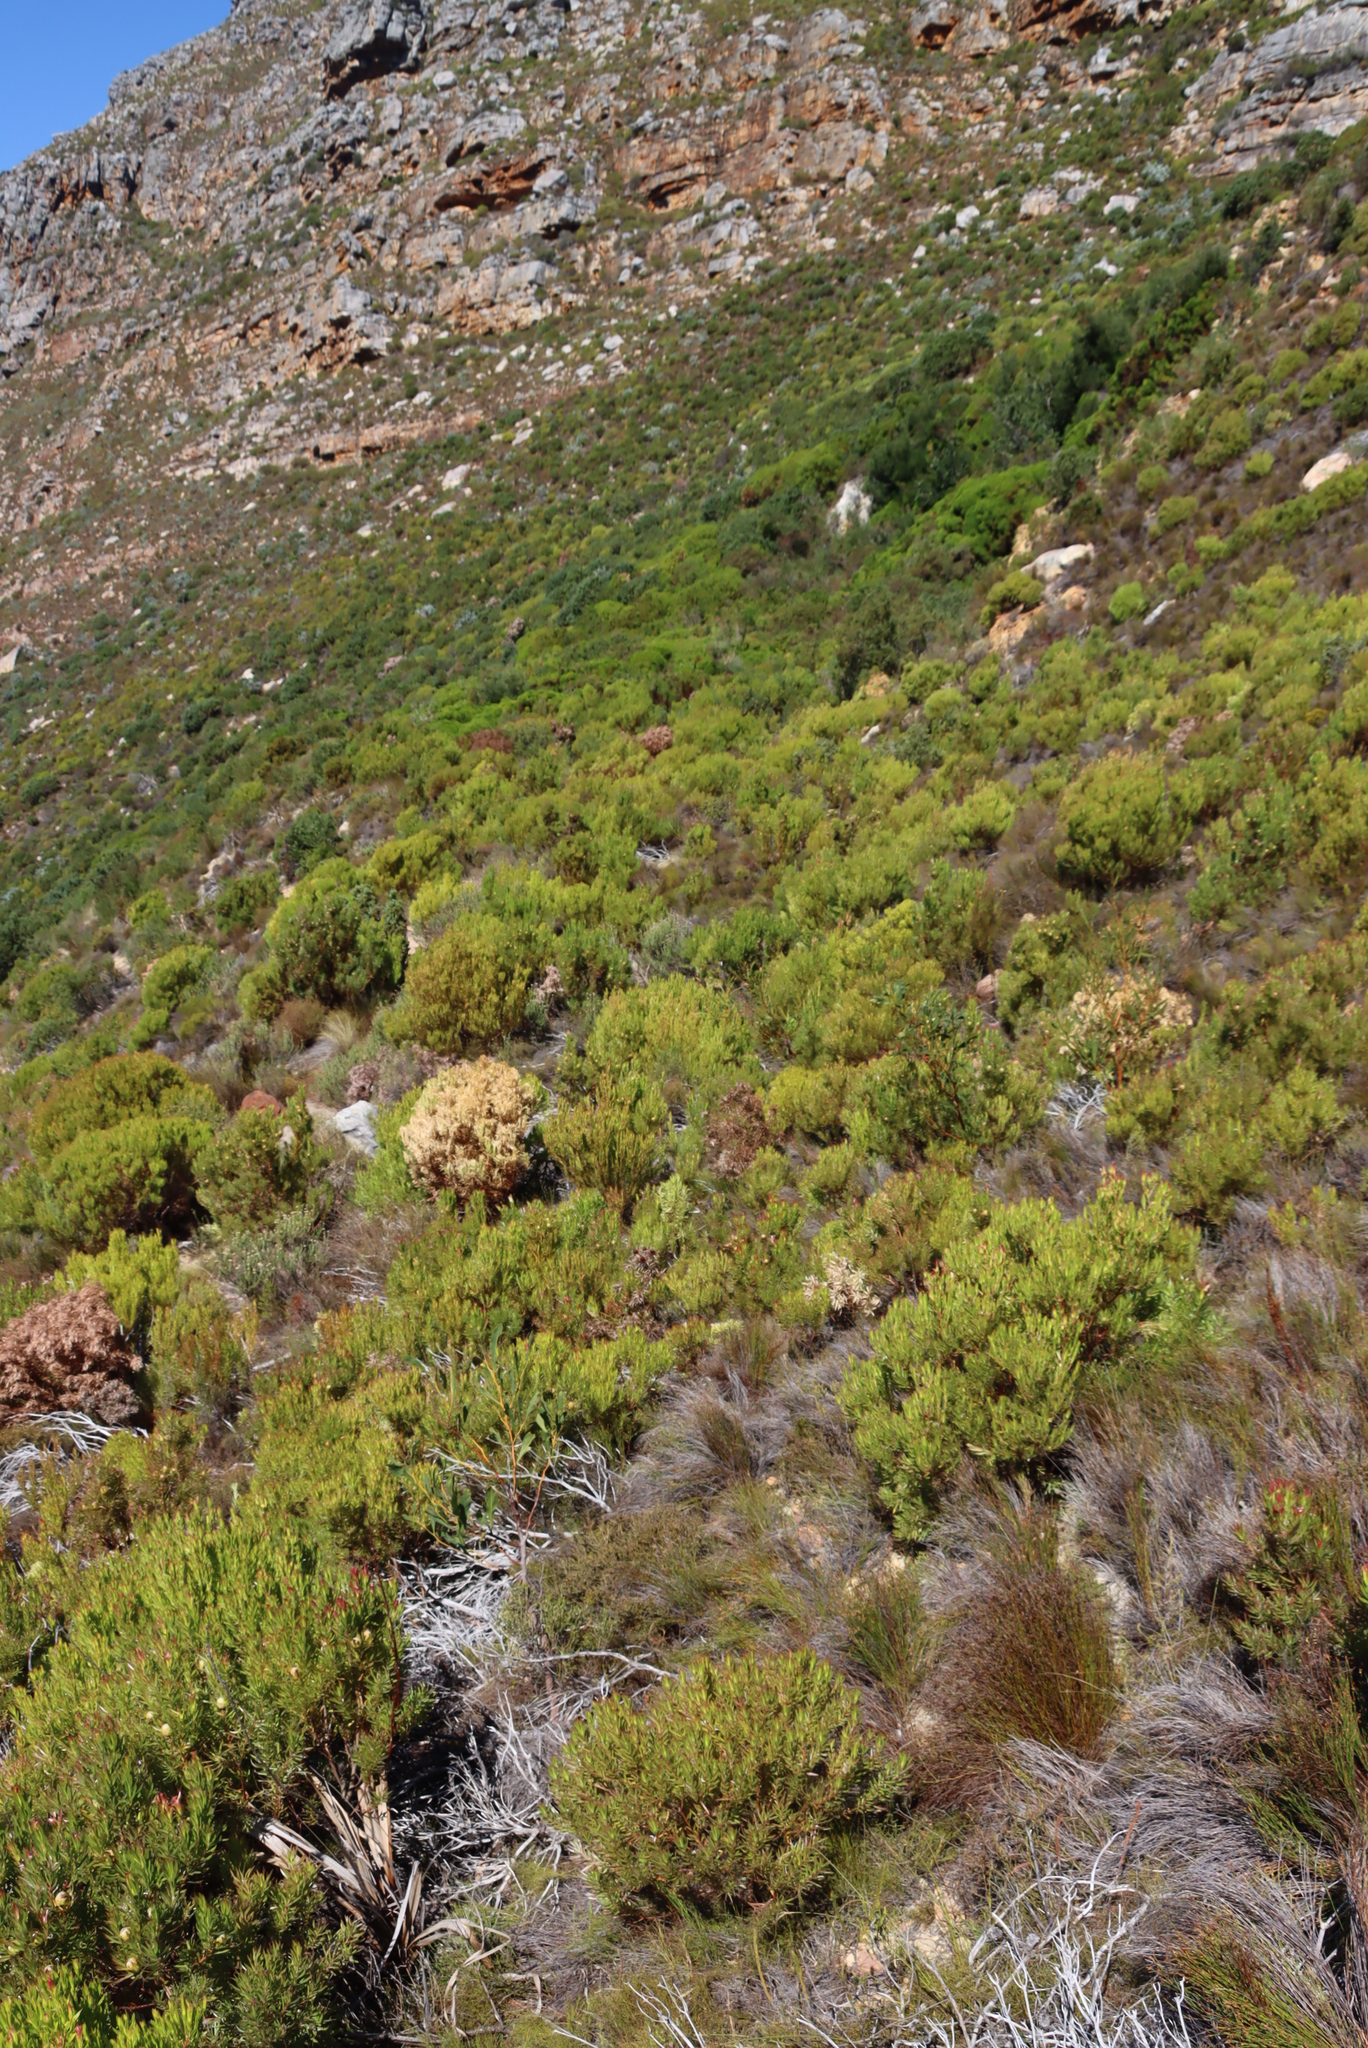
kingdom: Plantae
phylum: Tracheophyta
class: Magnoliopsida
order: Proteales
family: Proteaceae
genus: Leucadendron
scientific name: Leucadendron xanthoconus
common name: Sickle-leaf conebush
